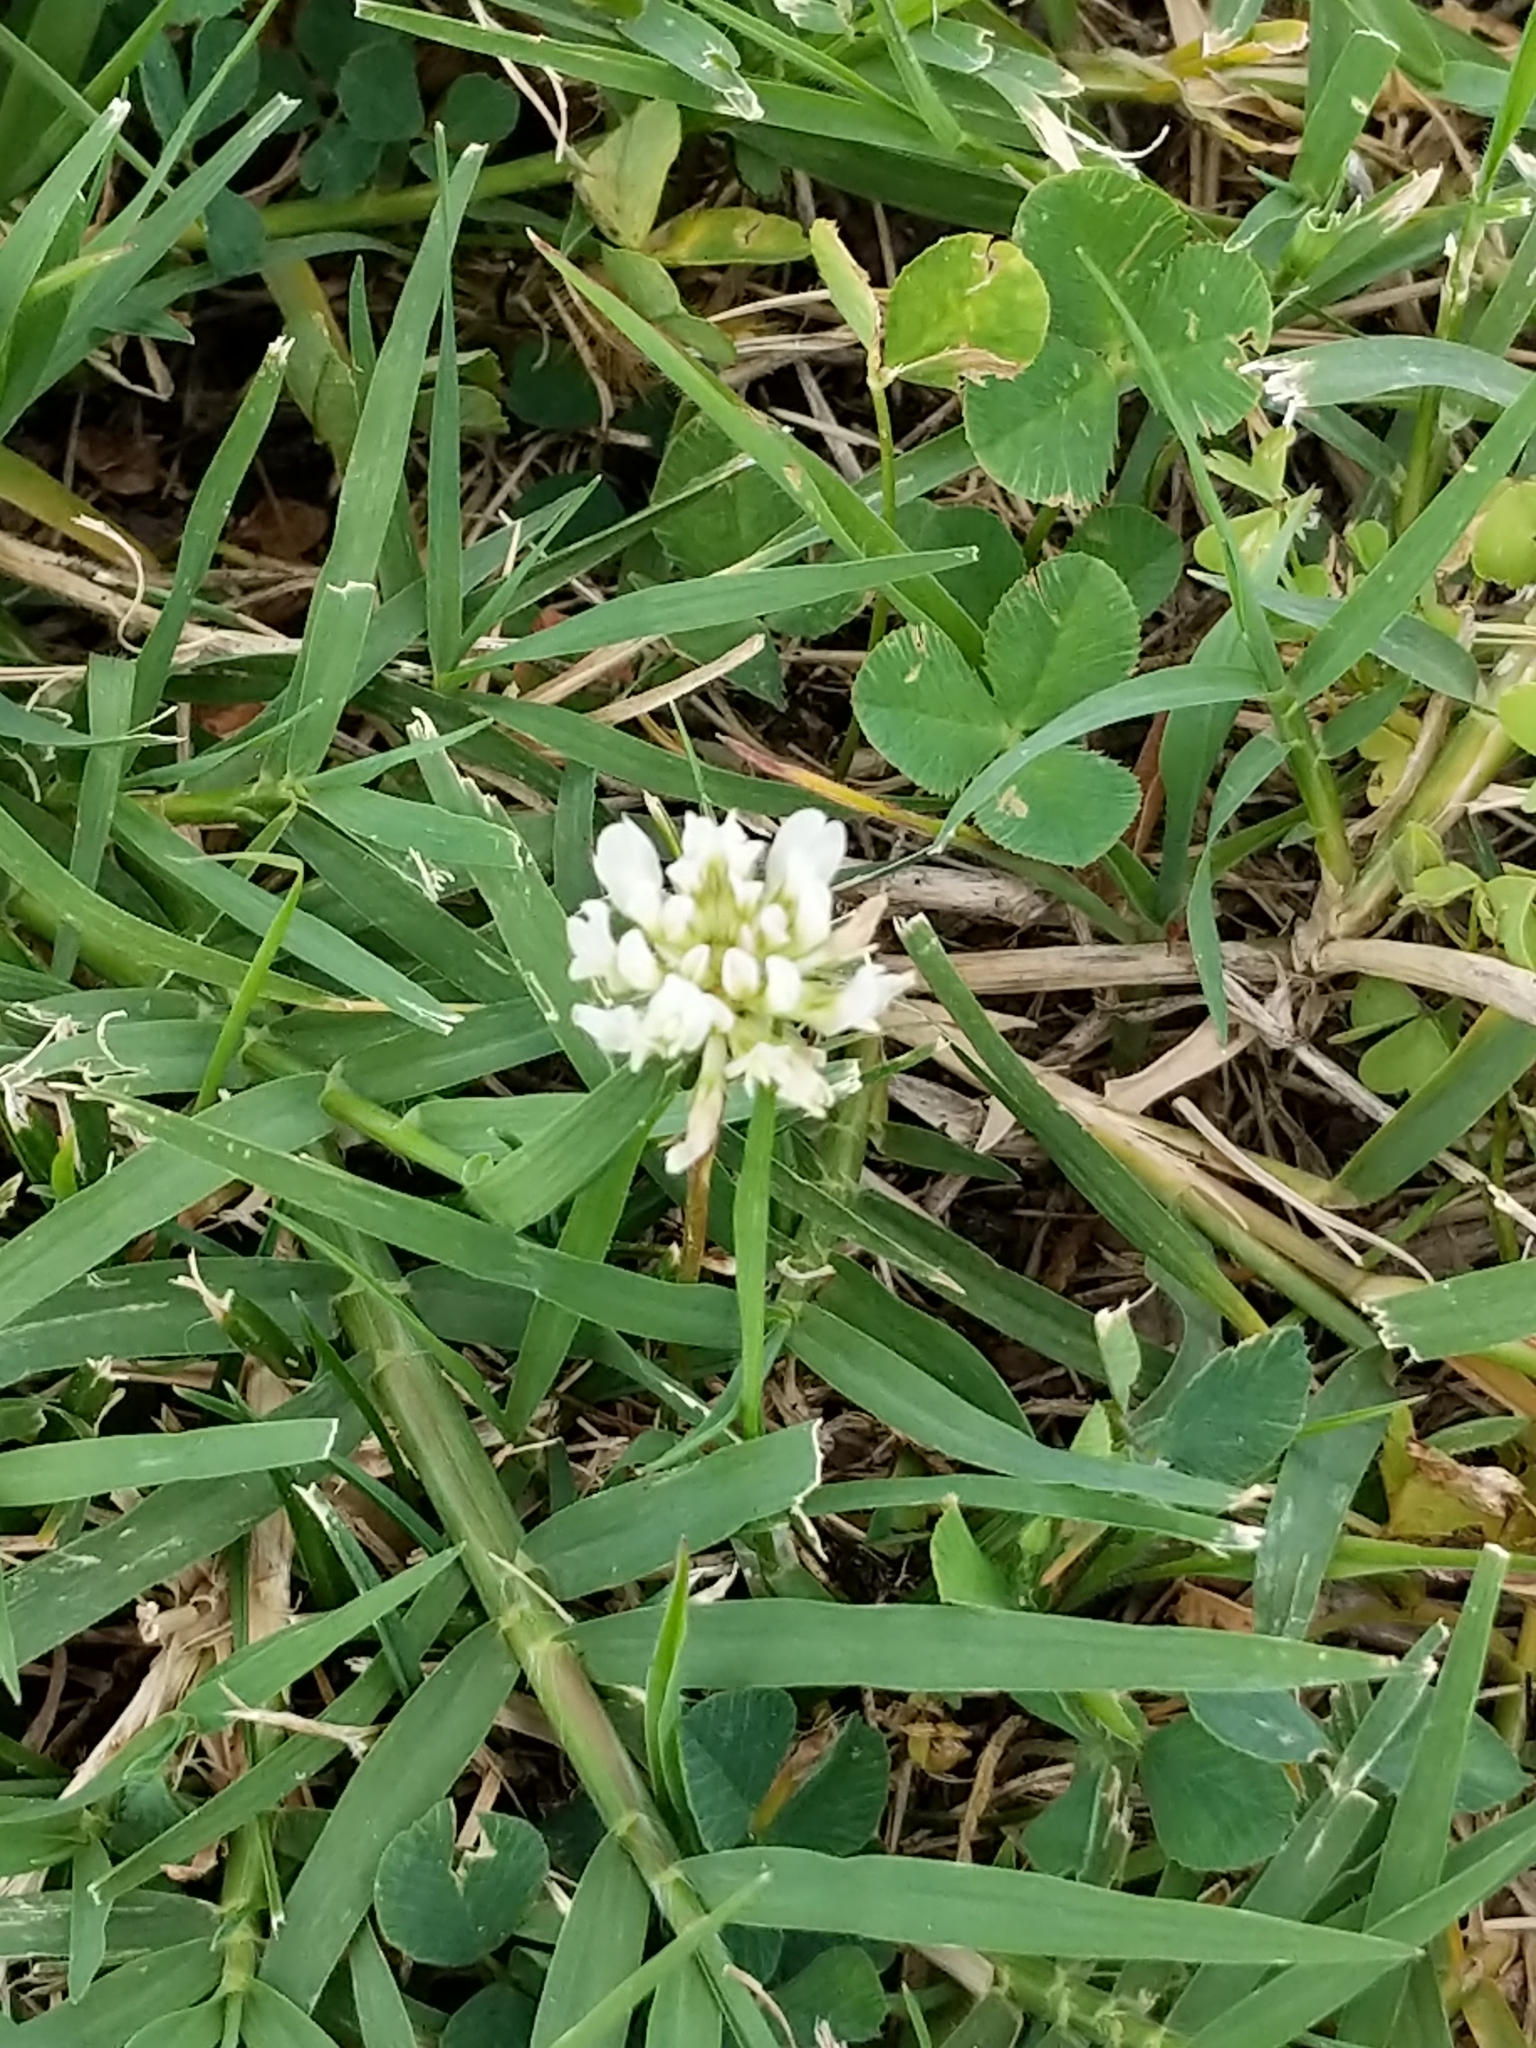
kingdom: Plantae
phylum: Tracheophyta
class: Magnoliopsida
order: Fabales
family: Fabaceae
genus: Trifolium
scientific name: Trifolium repens
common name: White clover
